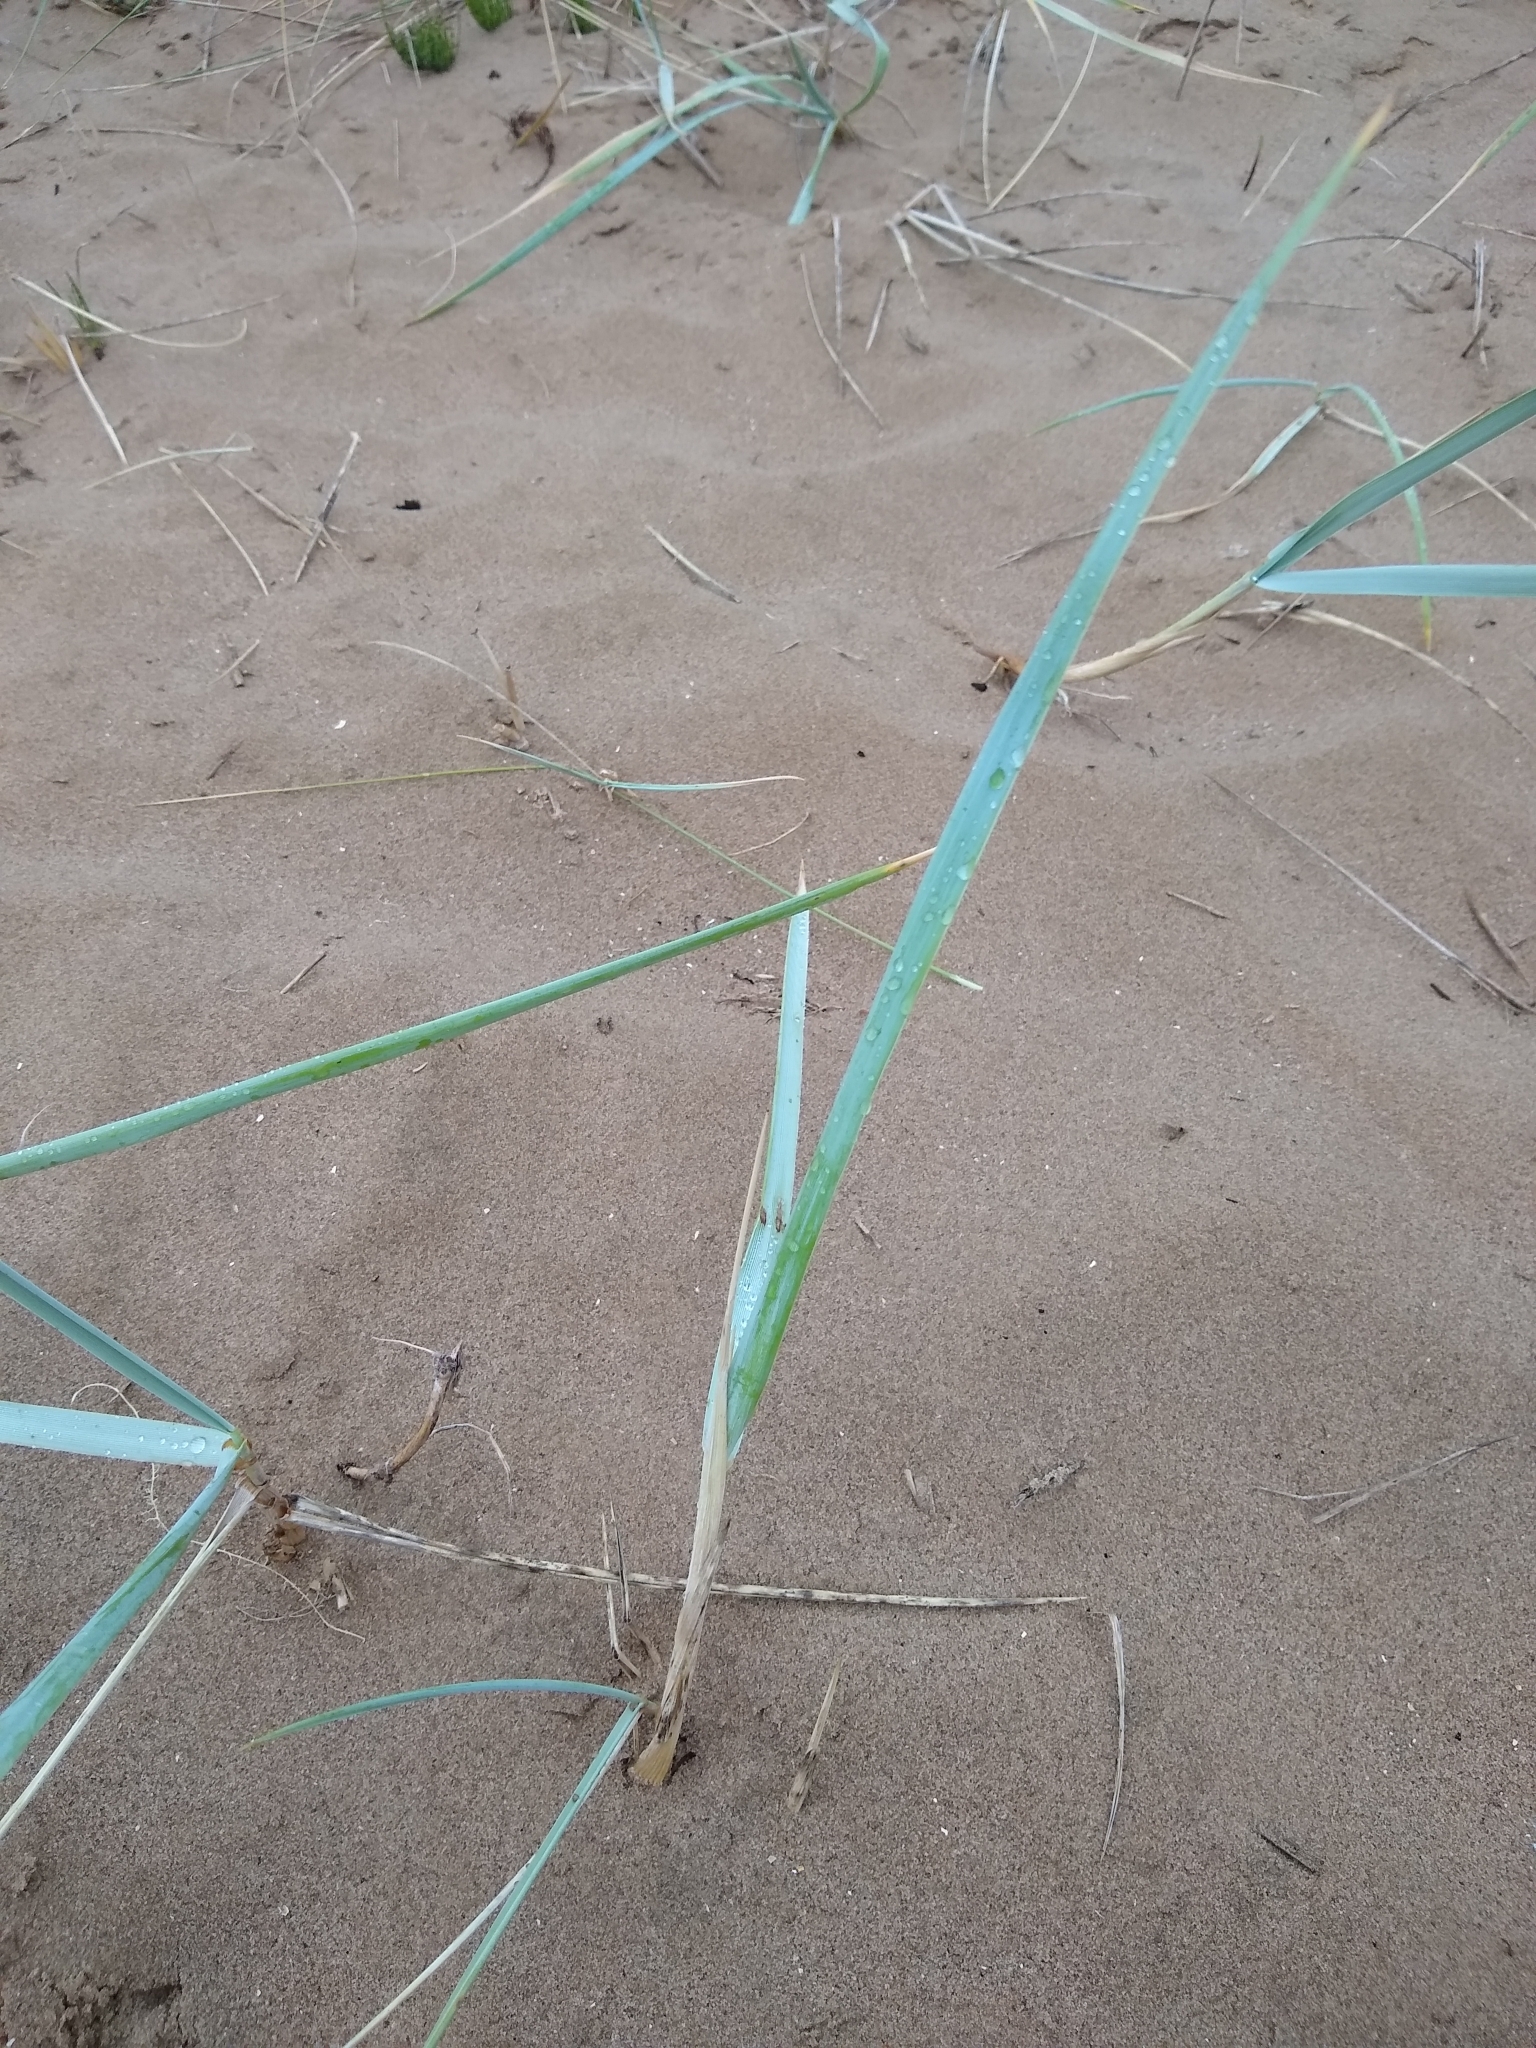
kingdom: Plantae
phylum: Tracheophyta
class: Liliopsida
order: Poales
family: Poaceae
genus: Leymus
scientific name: Leymus arenarius
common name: Lyme-grass
